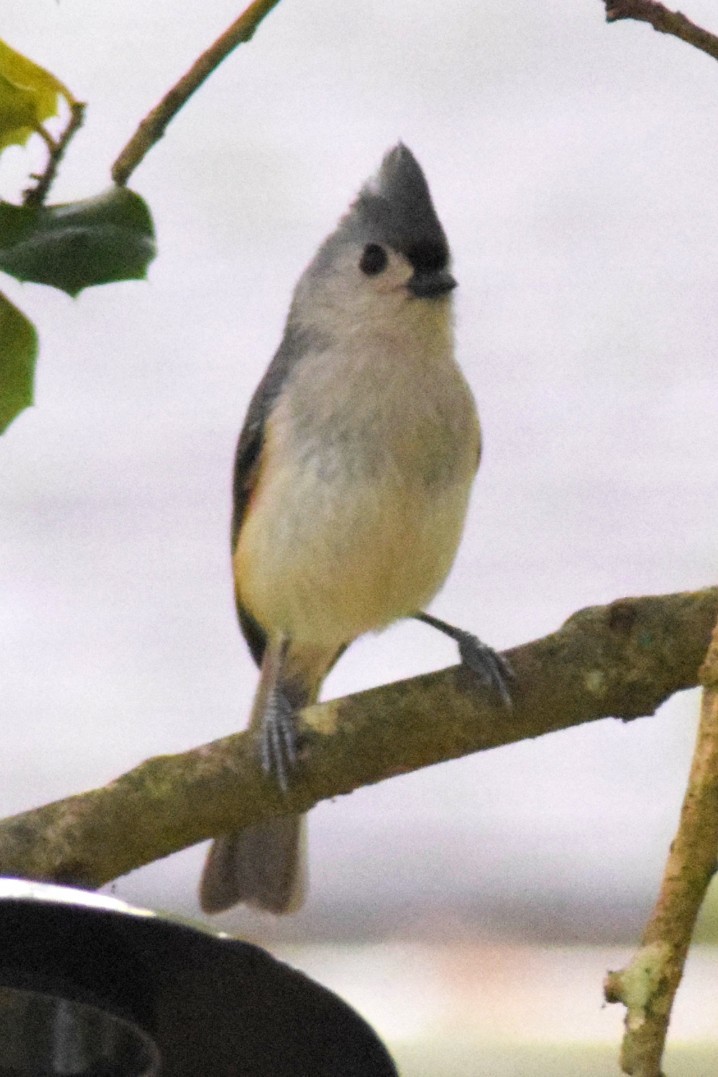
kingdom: Animalia
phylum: Chordata
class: Aves
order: Passeriformes
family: Paridae
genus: Baeolophus
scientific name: Baeolophus bicolor
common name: Tufted titmouse
